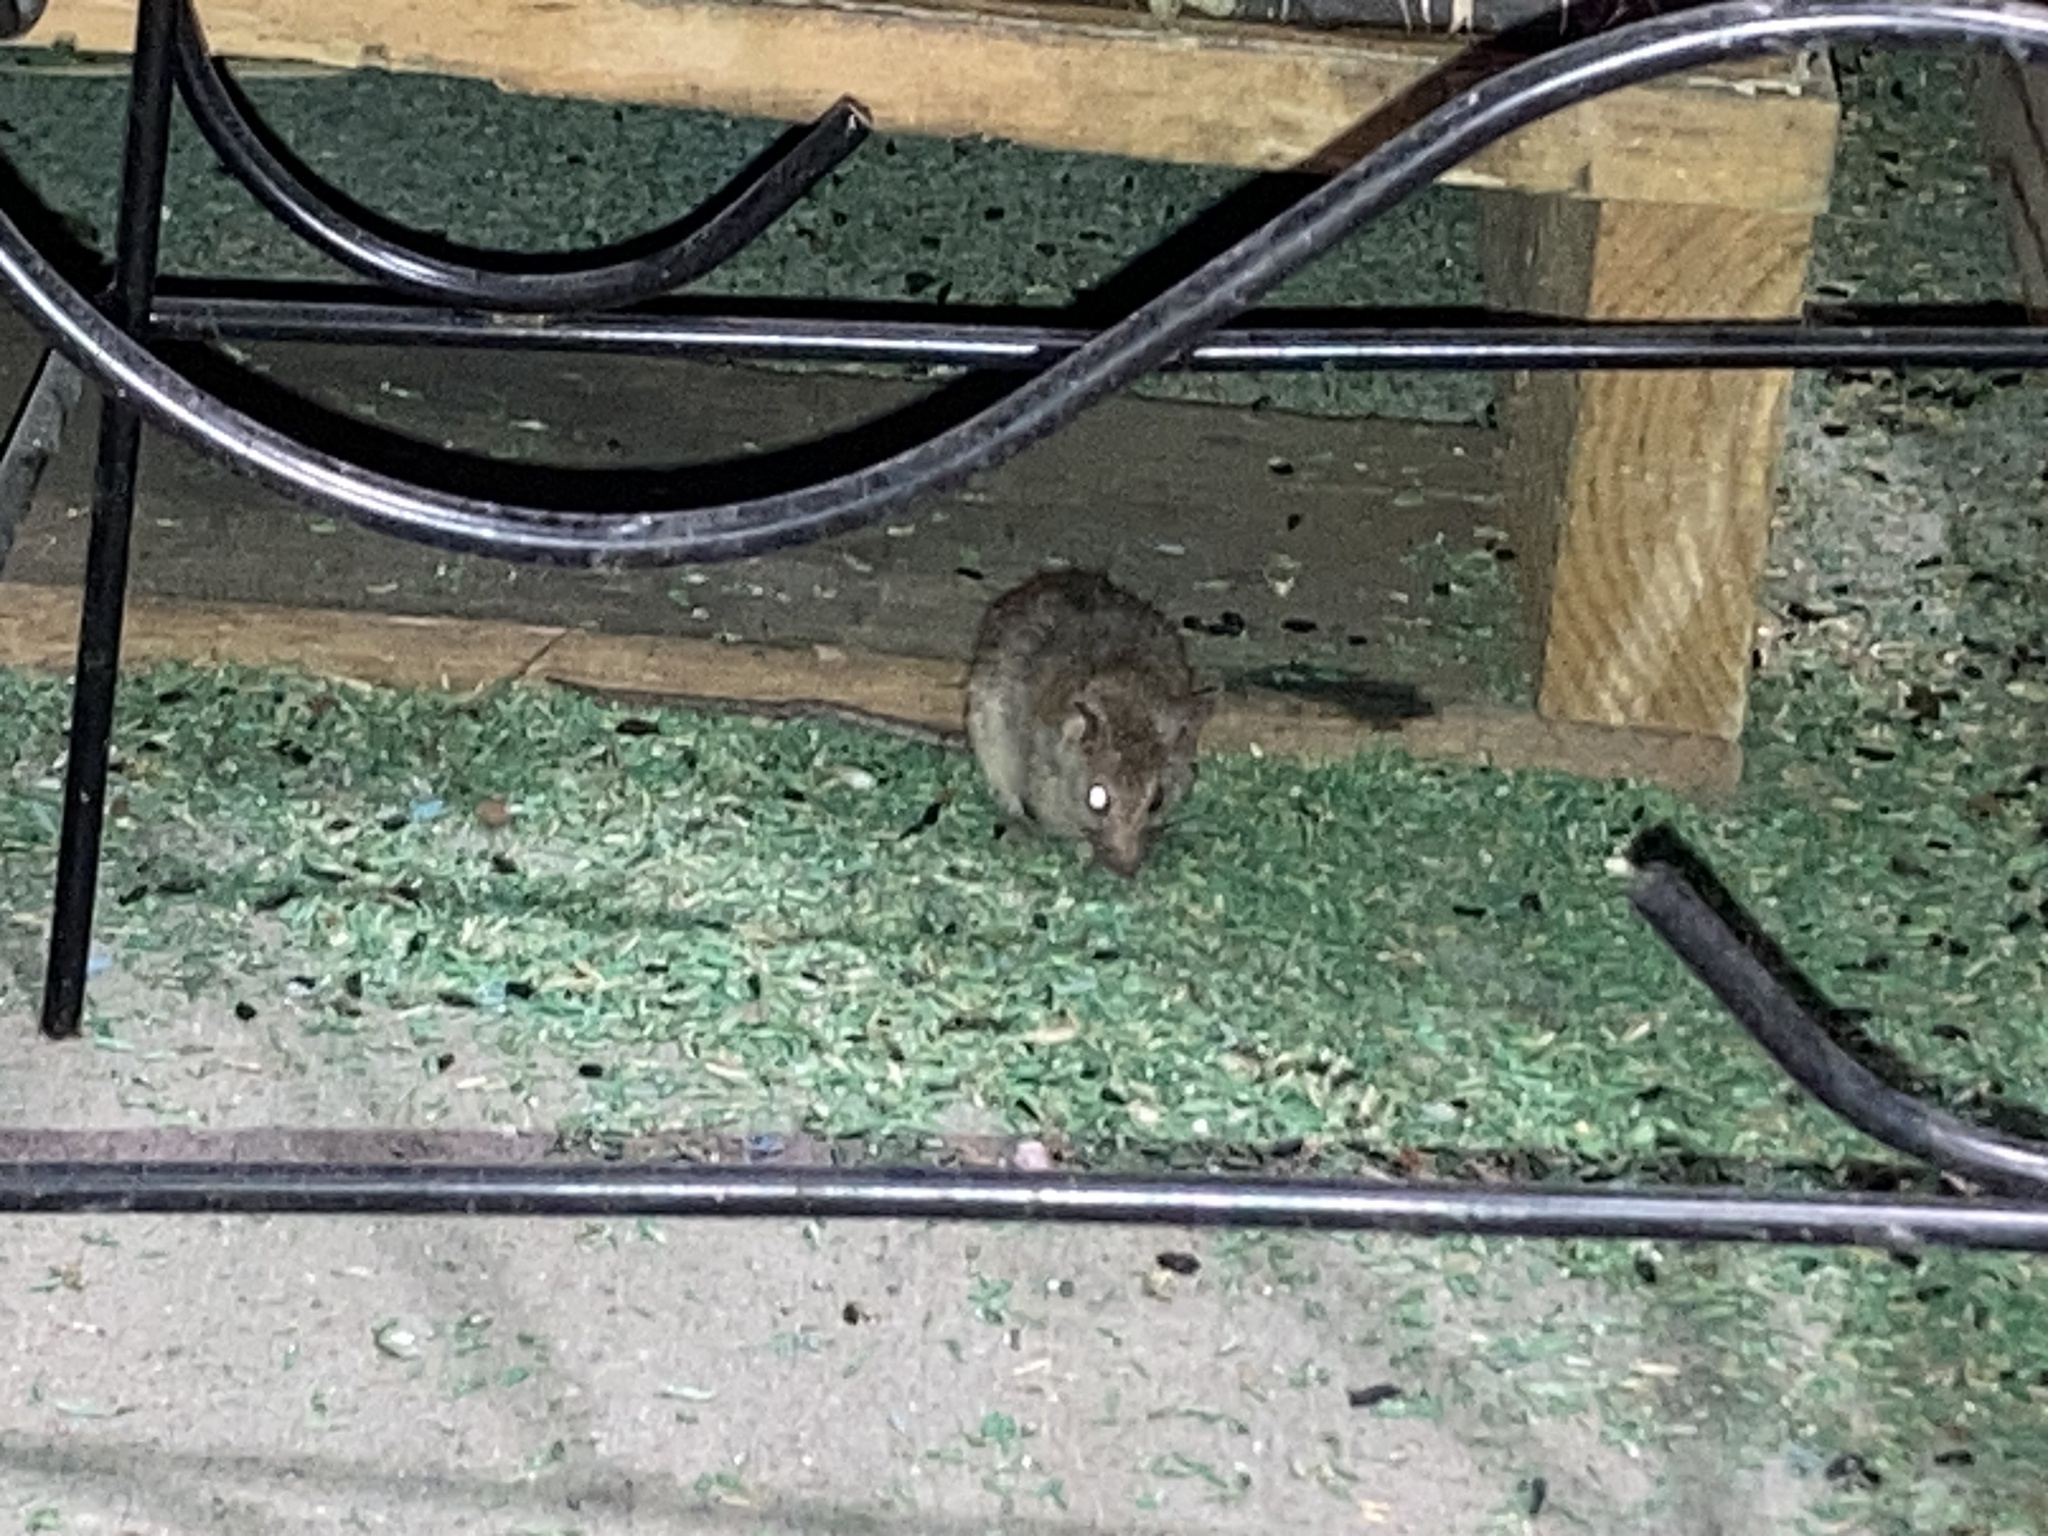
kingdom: Animalia
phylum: Chordata
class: Mammalia
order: Rodentia
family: Muridae
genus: Rattus
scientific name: Rattus norvegicus
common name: Brown rat
